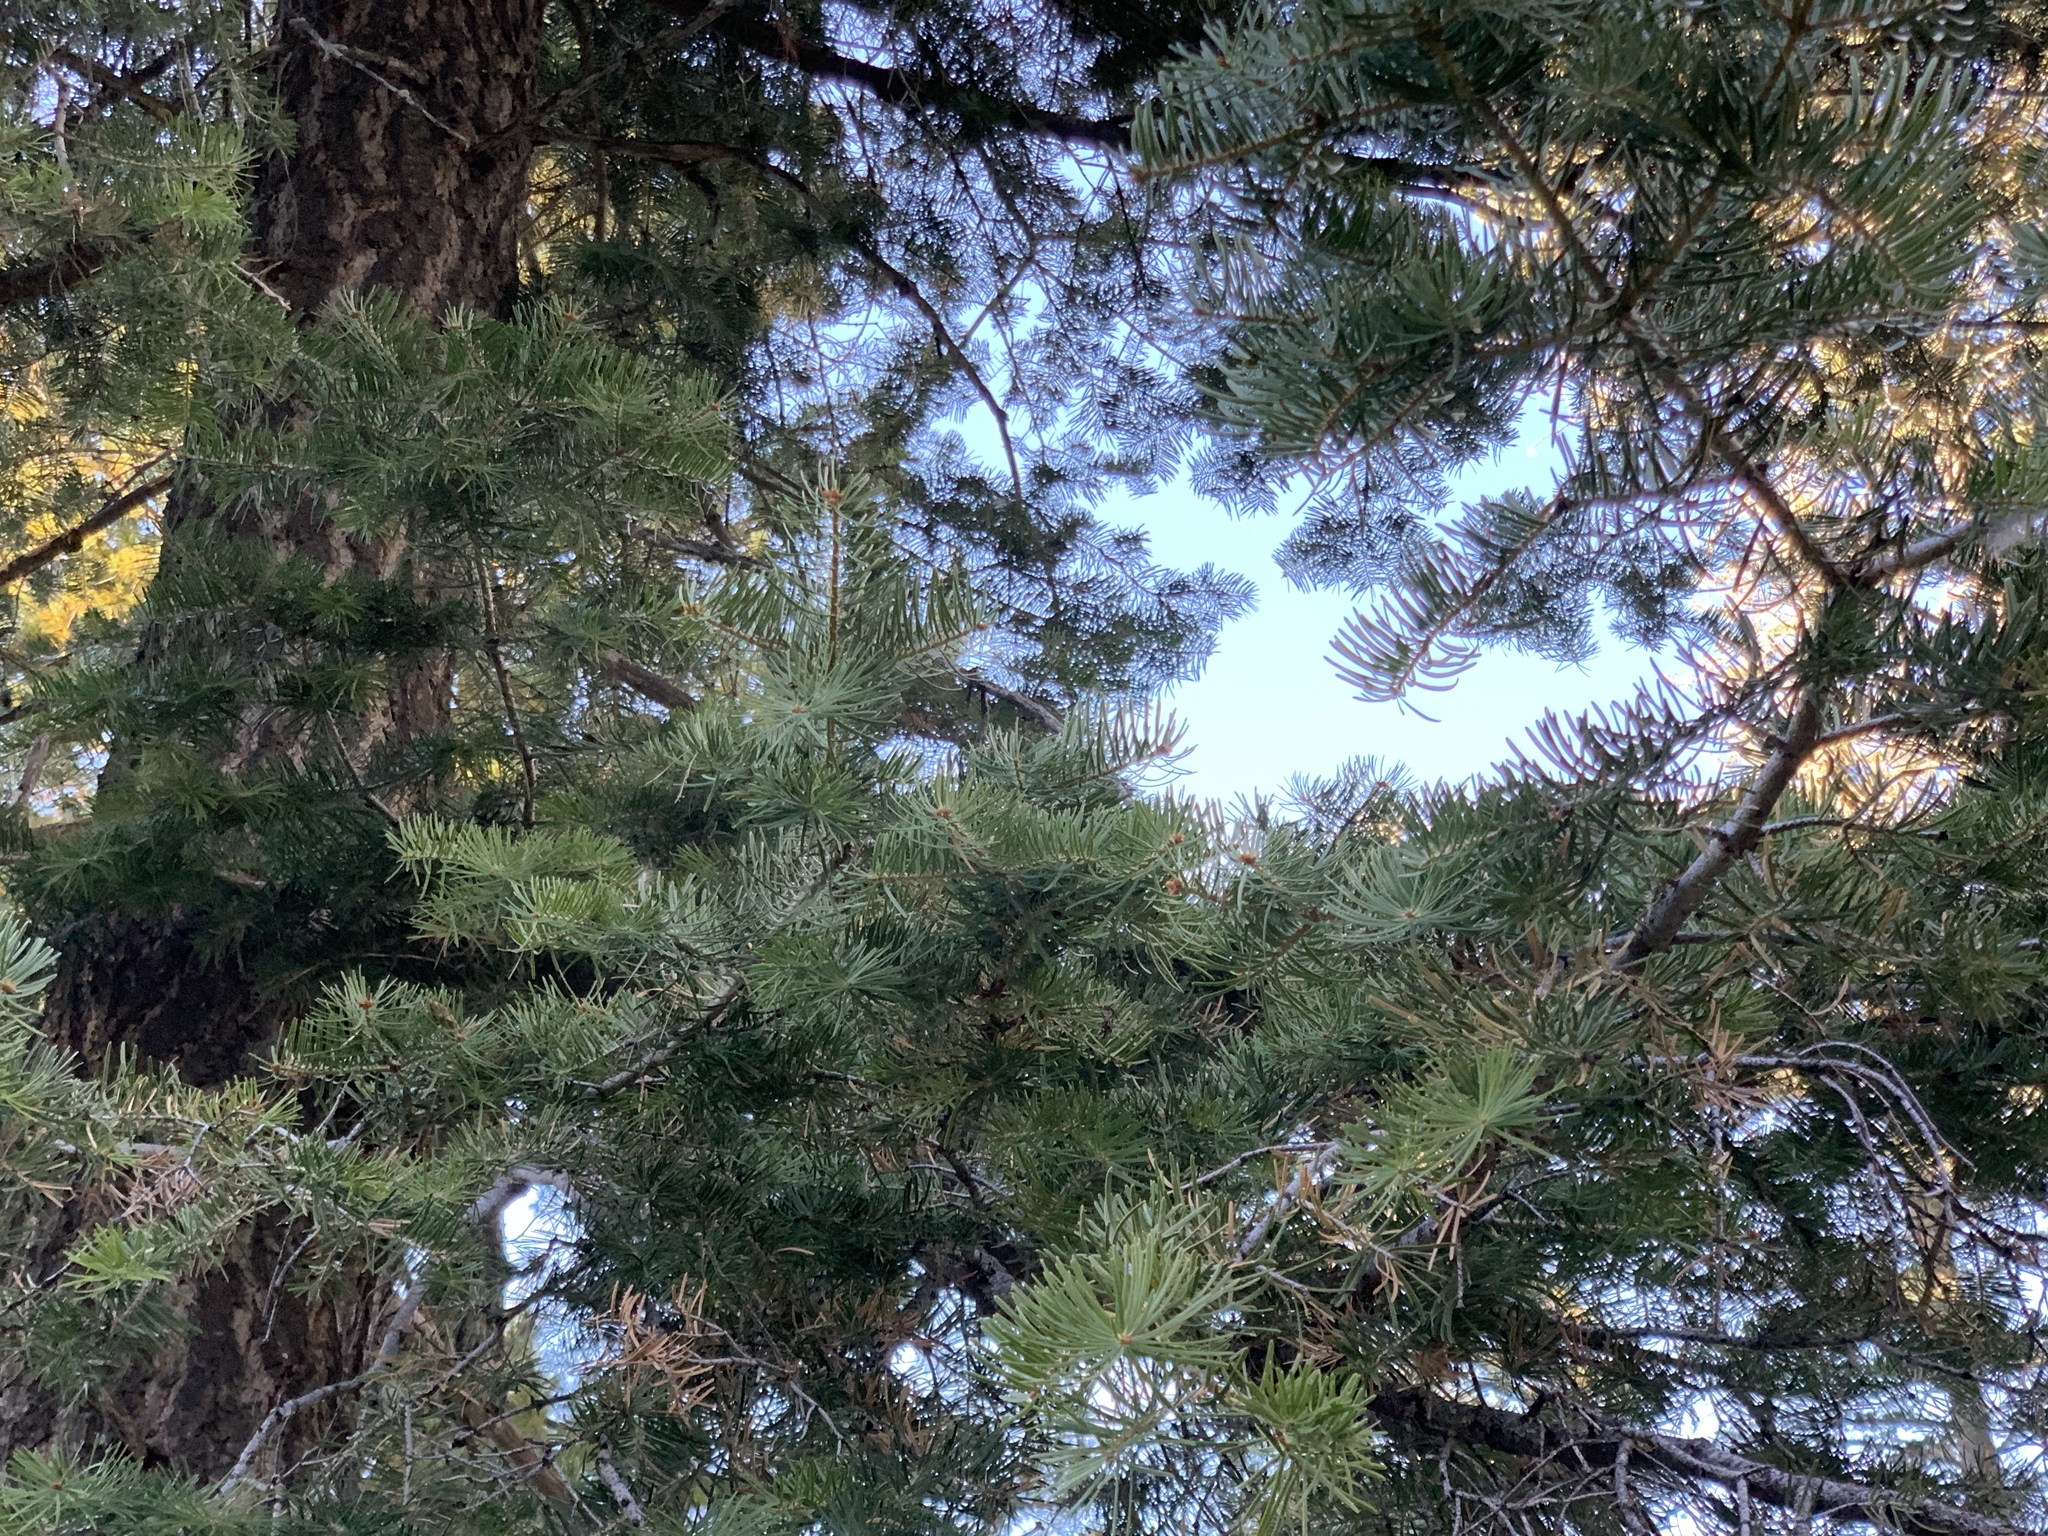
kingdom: Plantae
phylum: Tracheophyta
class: Pinopsida
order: Pinales
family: Pinaceae
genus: Abies
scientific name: Abies concolor
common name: Colorado fir
